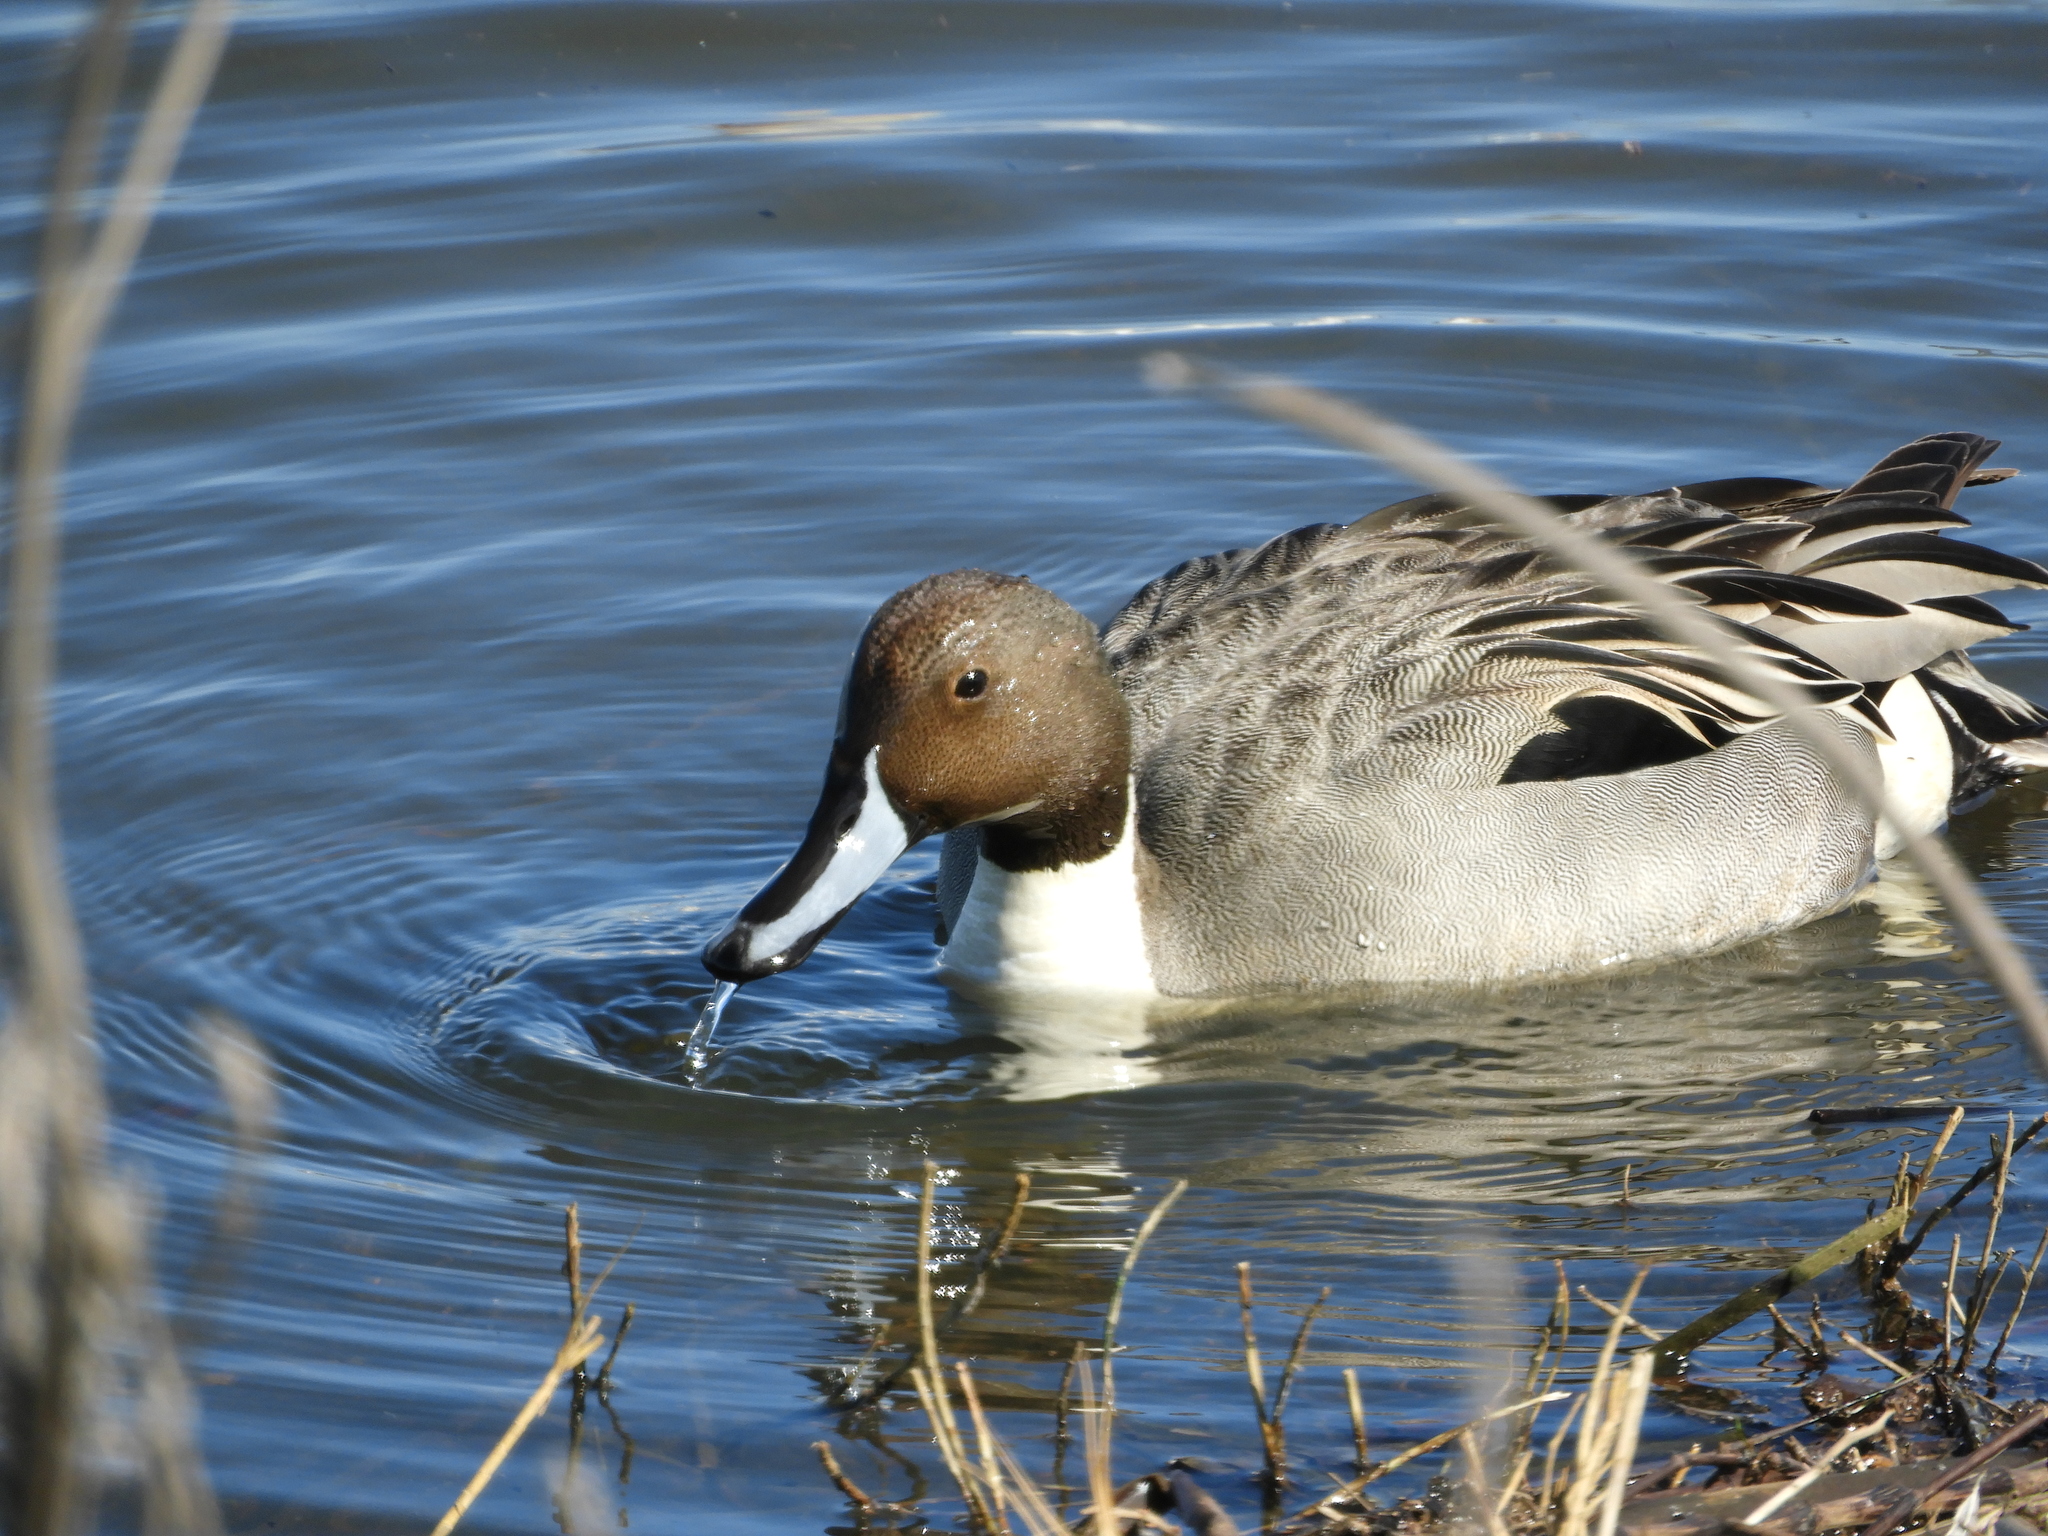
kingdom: Animalia
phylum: Chordata
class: Aves
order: Anseriformes
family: Anatidae
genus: Anas
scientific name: Anas acuta
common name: Northern pintail
